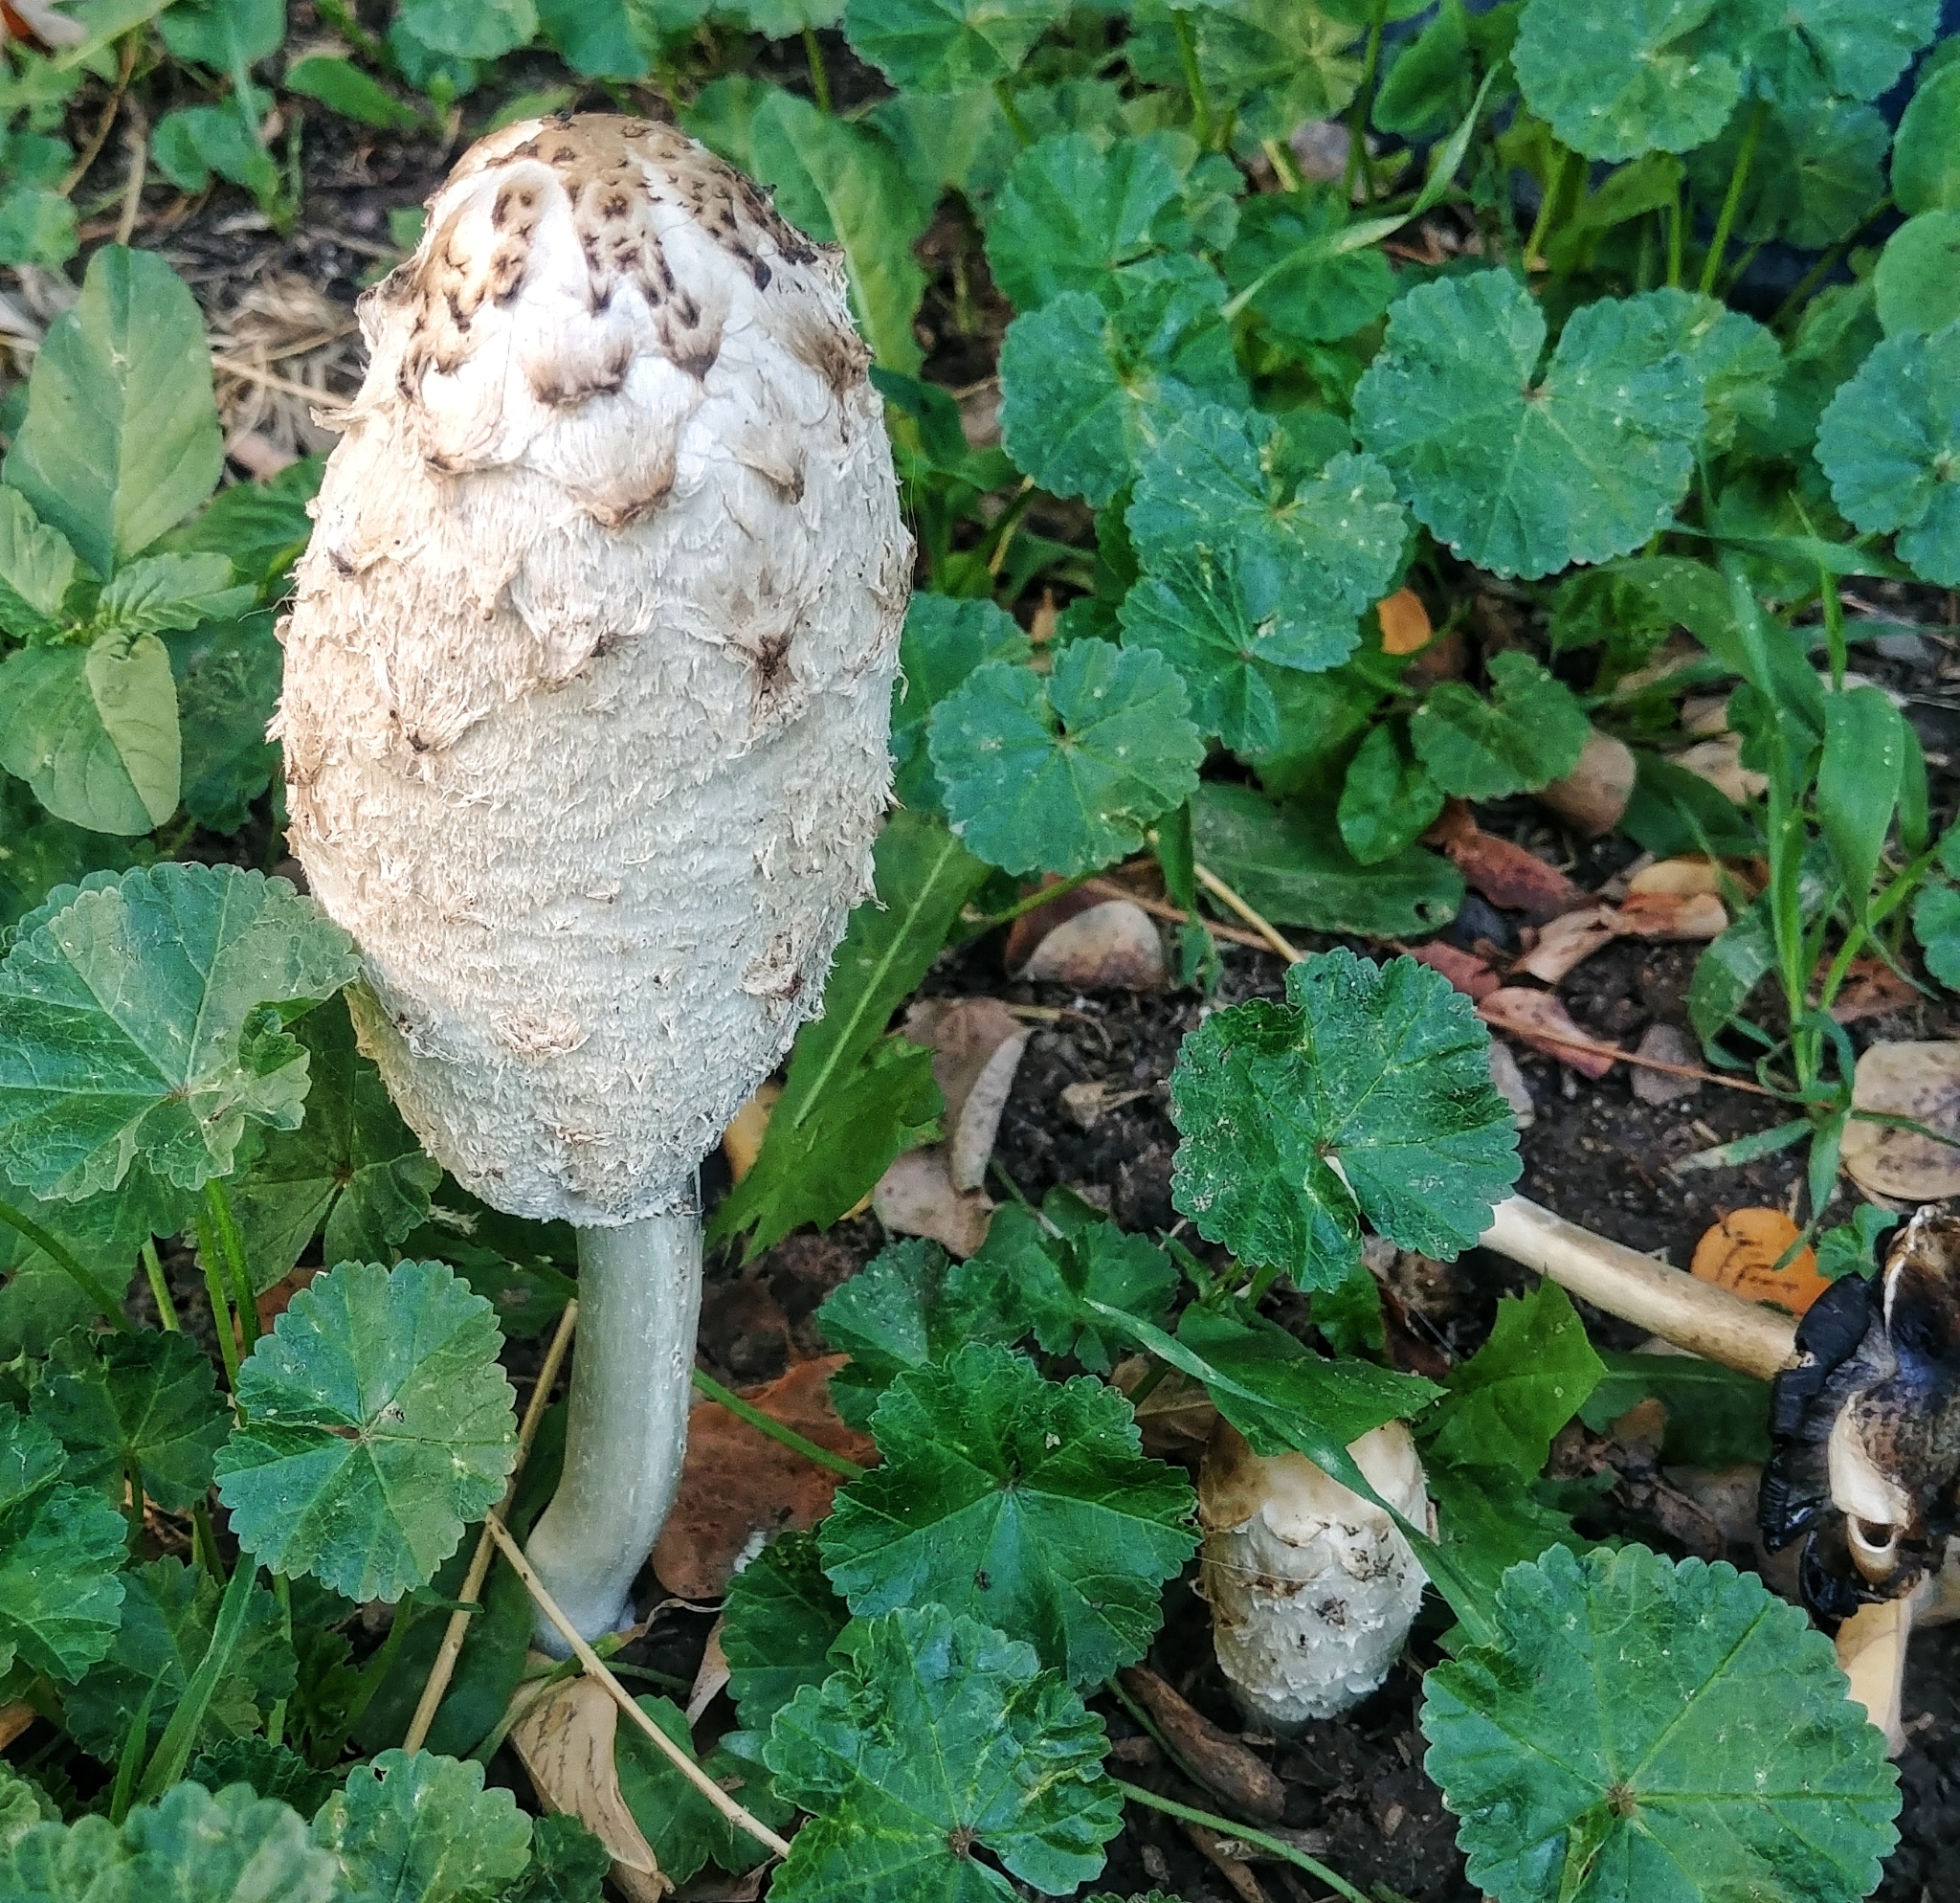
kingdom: Fungi
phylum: Basidiomycota
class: Agaricomycetes
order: Agaricales
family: Agaricaceae
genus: Coprinus
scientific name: Coprinus comatus
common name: Lawyer's wig
